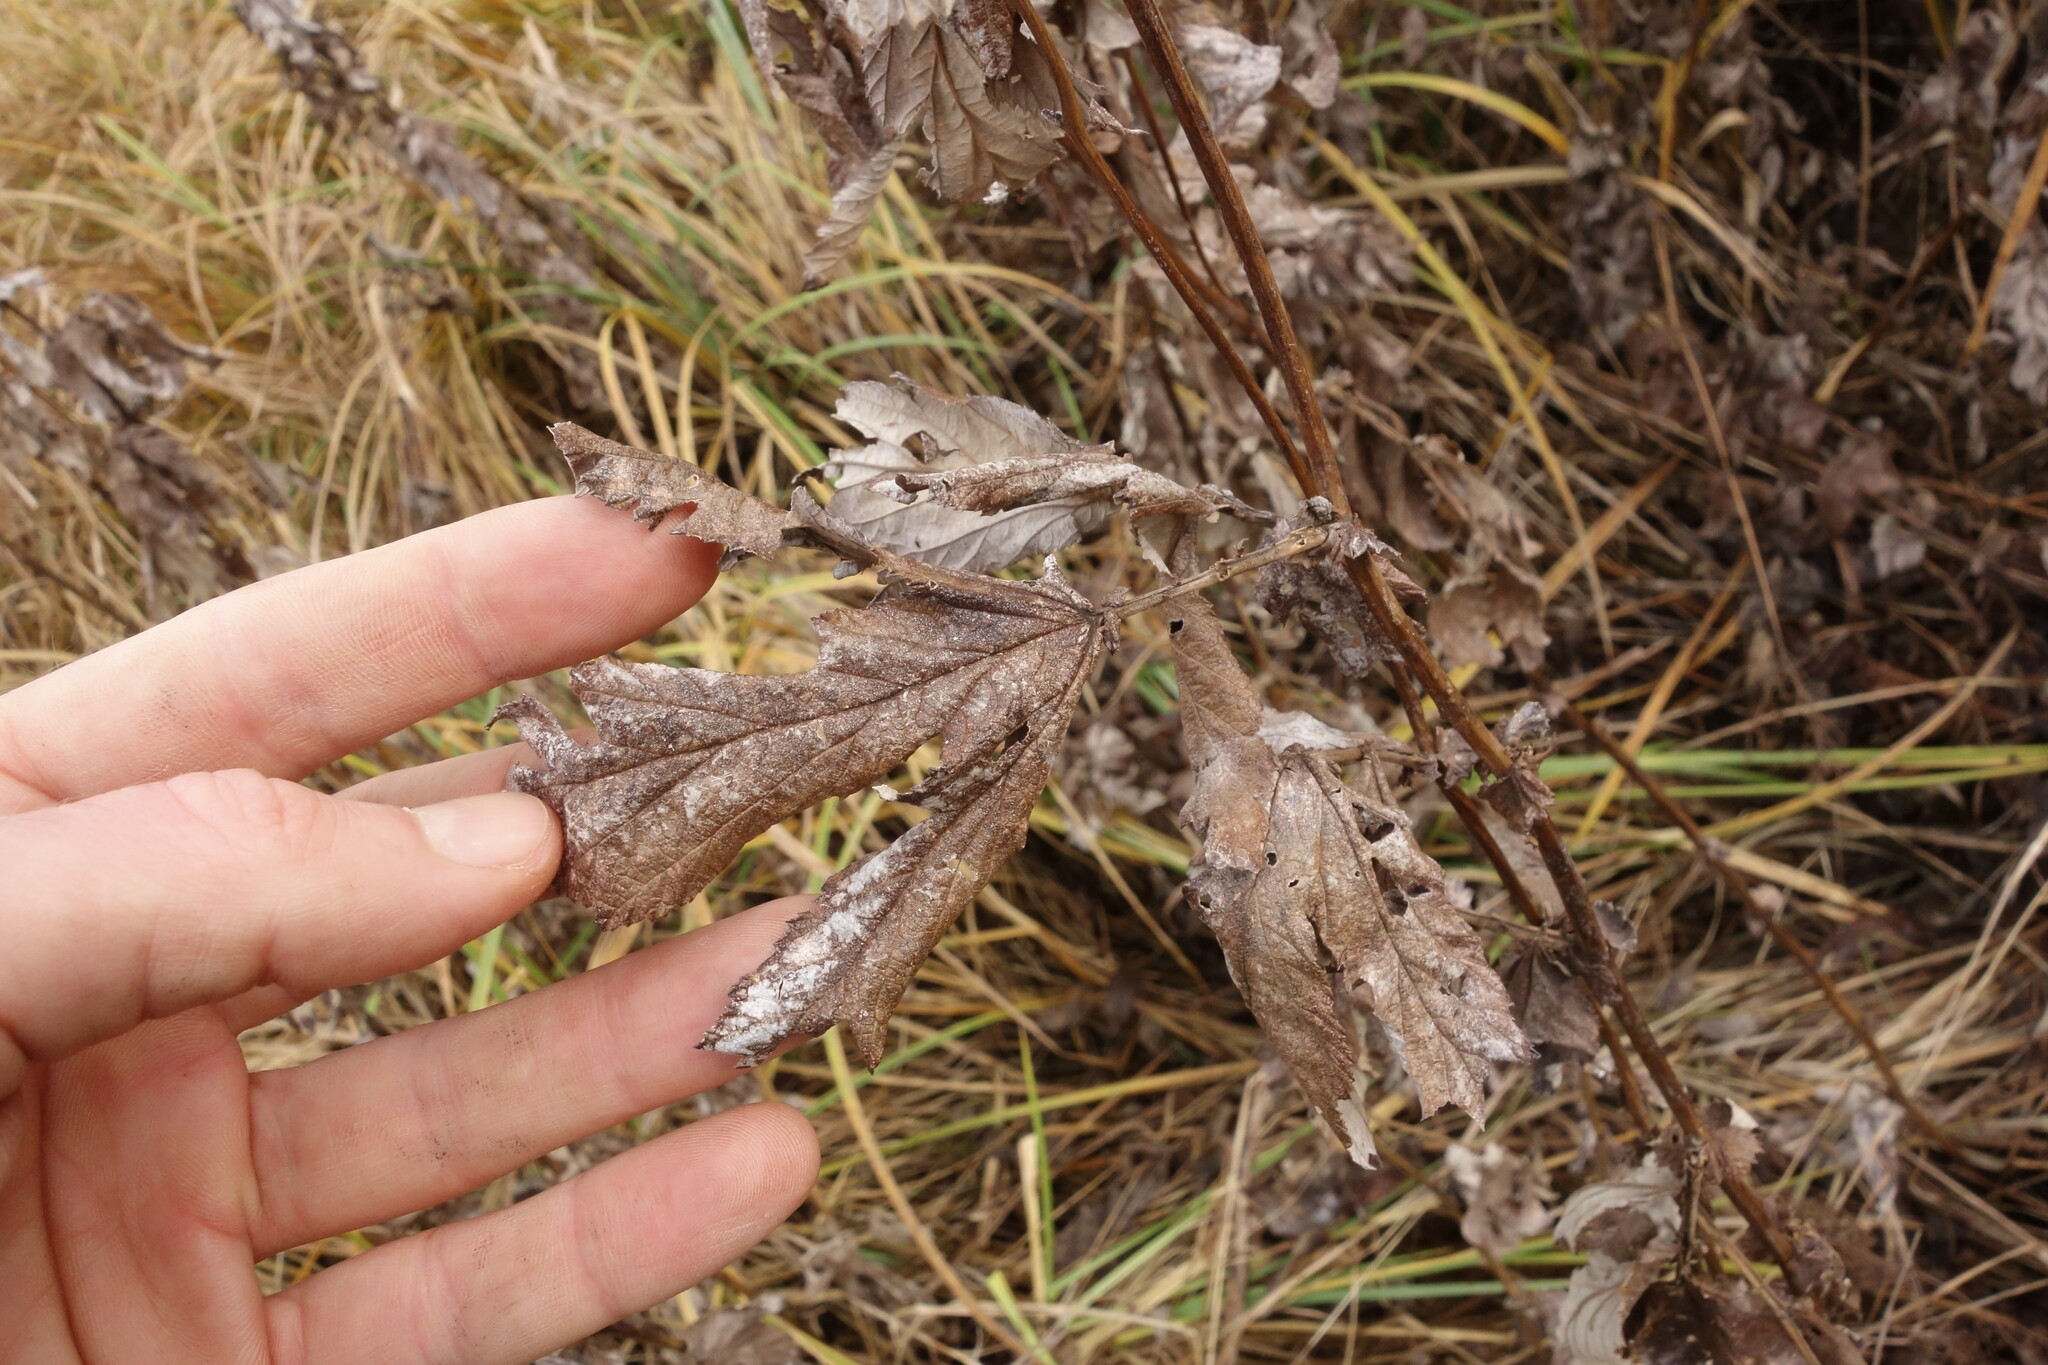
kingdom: Plantae
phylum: Tracheophyta
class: Magnoliopsida
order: Rosales
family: Rosaceae
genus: Filipendula
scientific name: Filipendula ulmaria
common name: Meadowsweet
